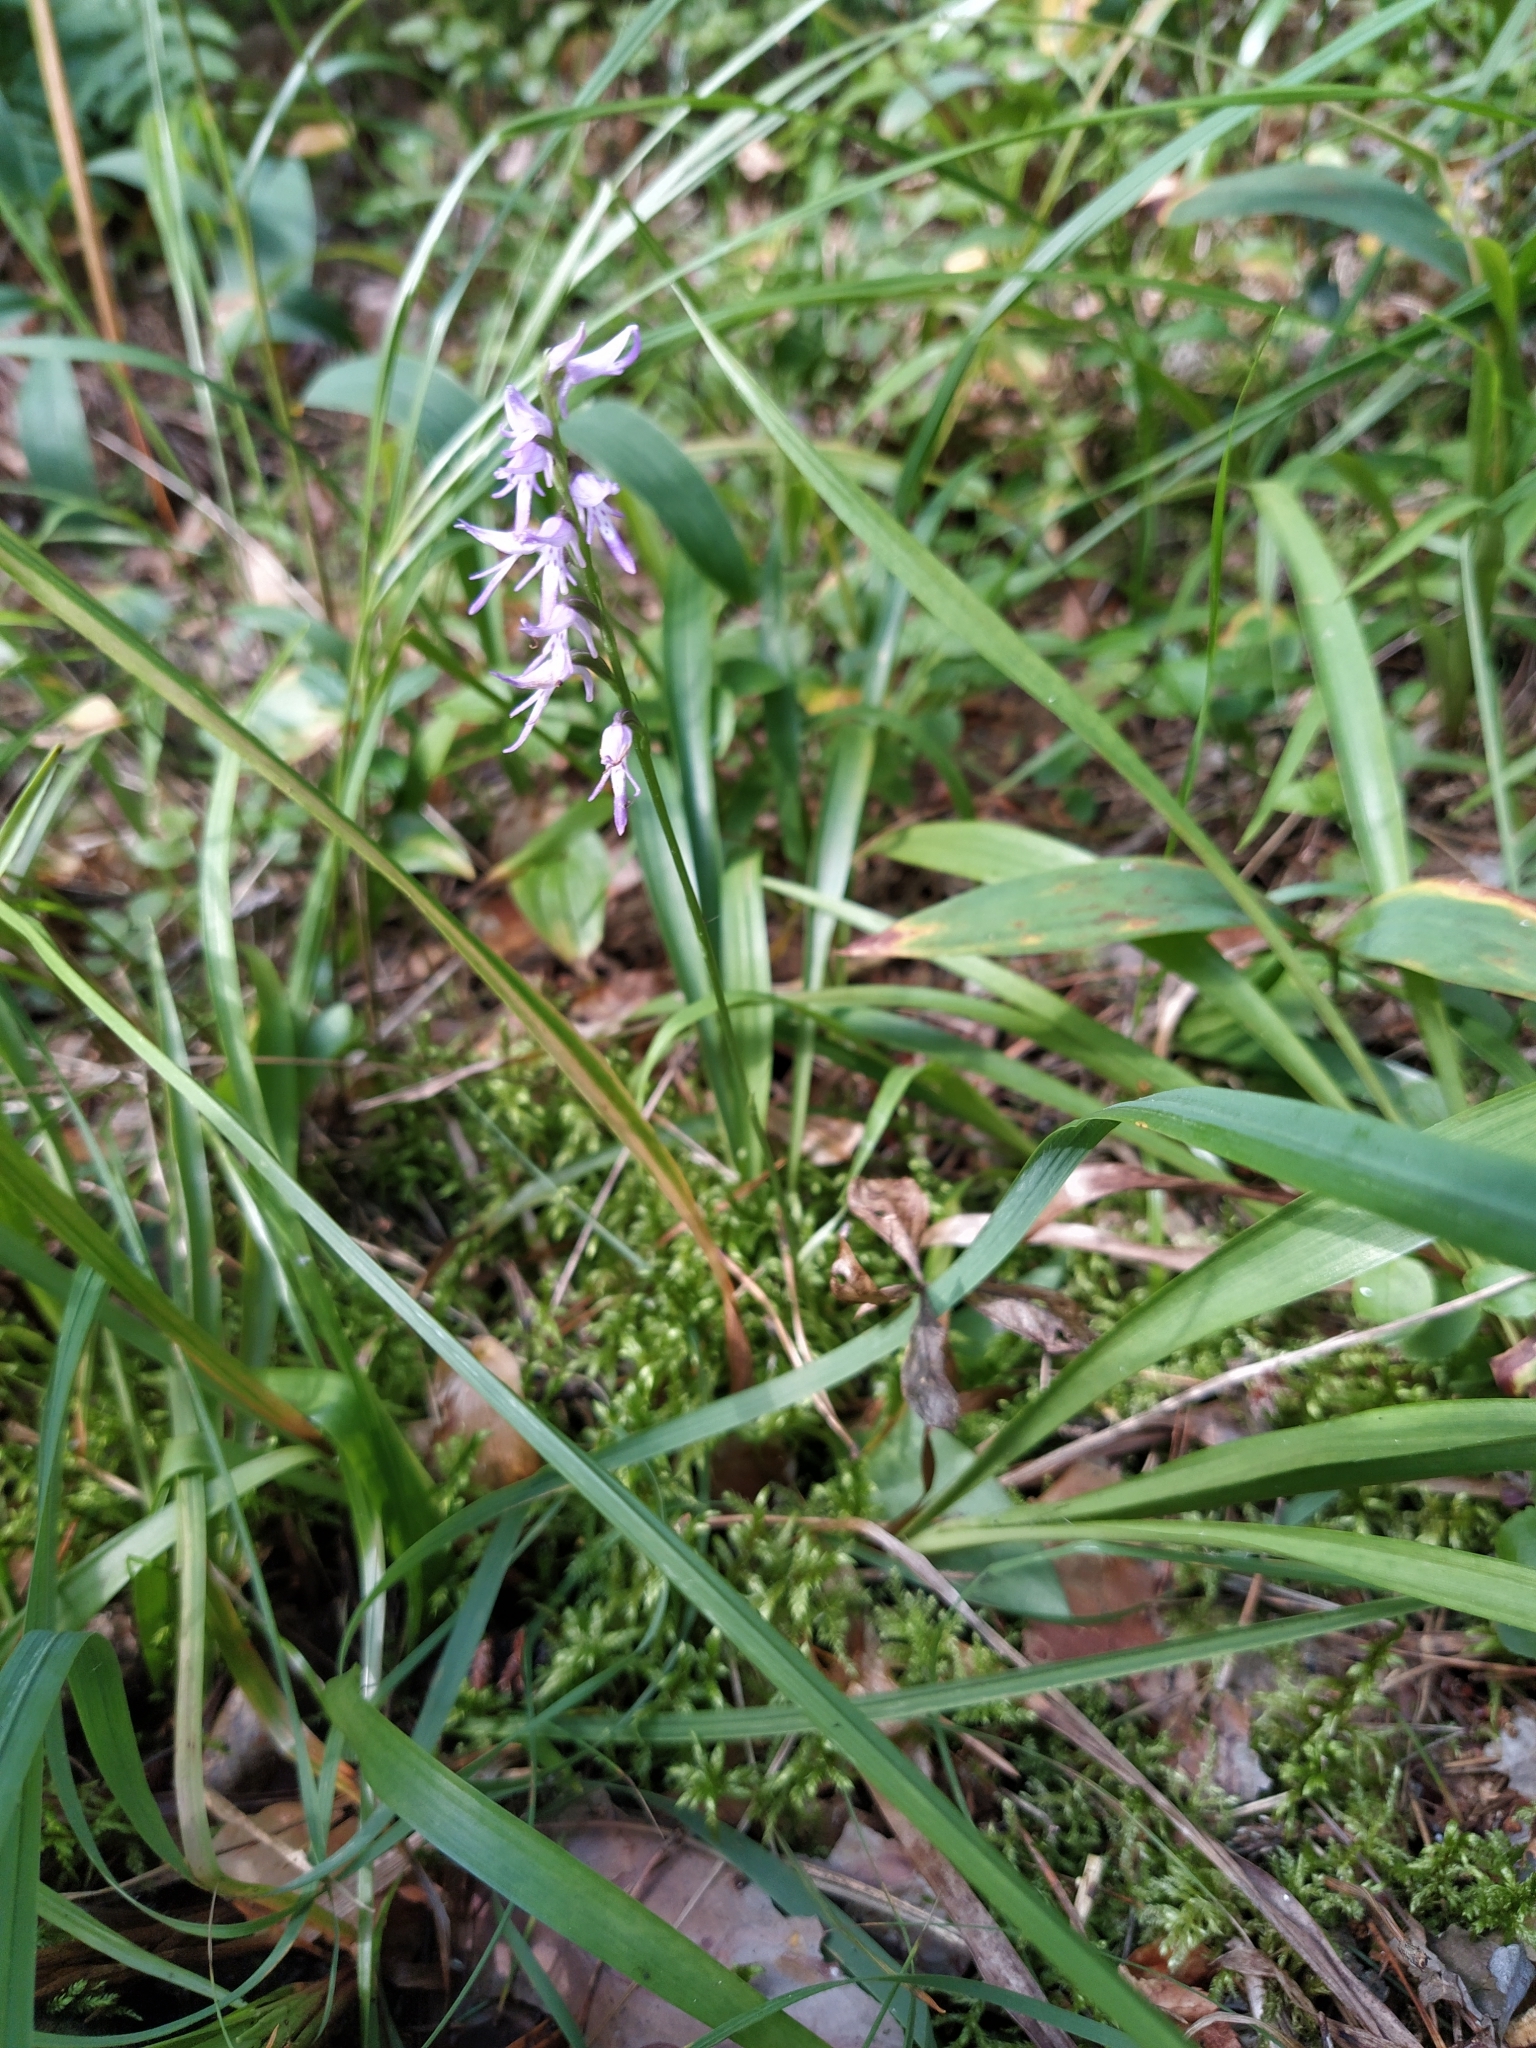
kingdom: Plantae
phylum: Tracheophyta
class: Liliopsida
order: Asparagales
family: Orchidaceae
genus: Hemipilia
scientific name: Hemipilia cucullata
